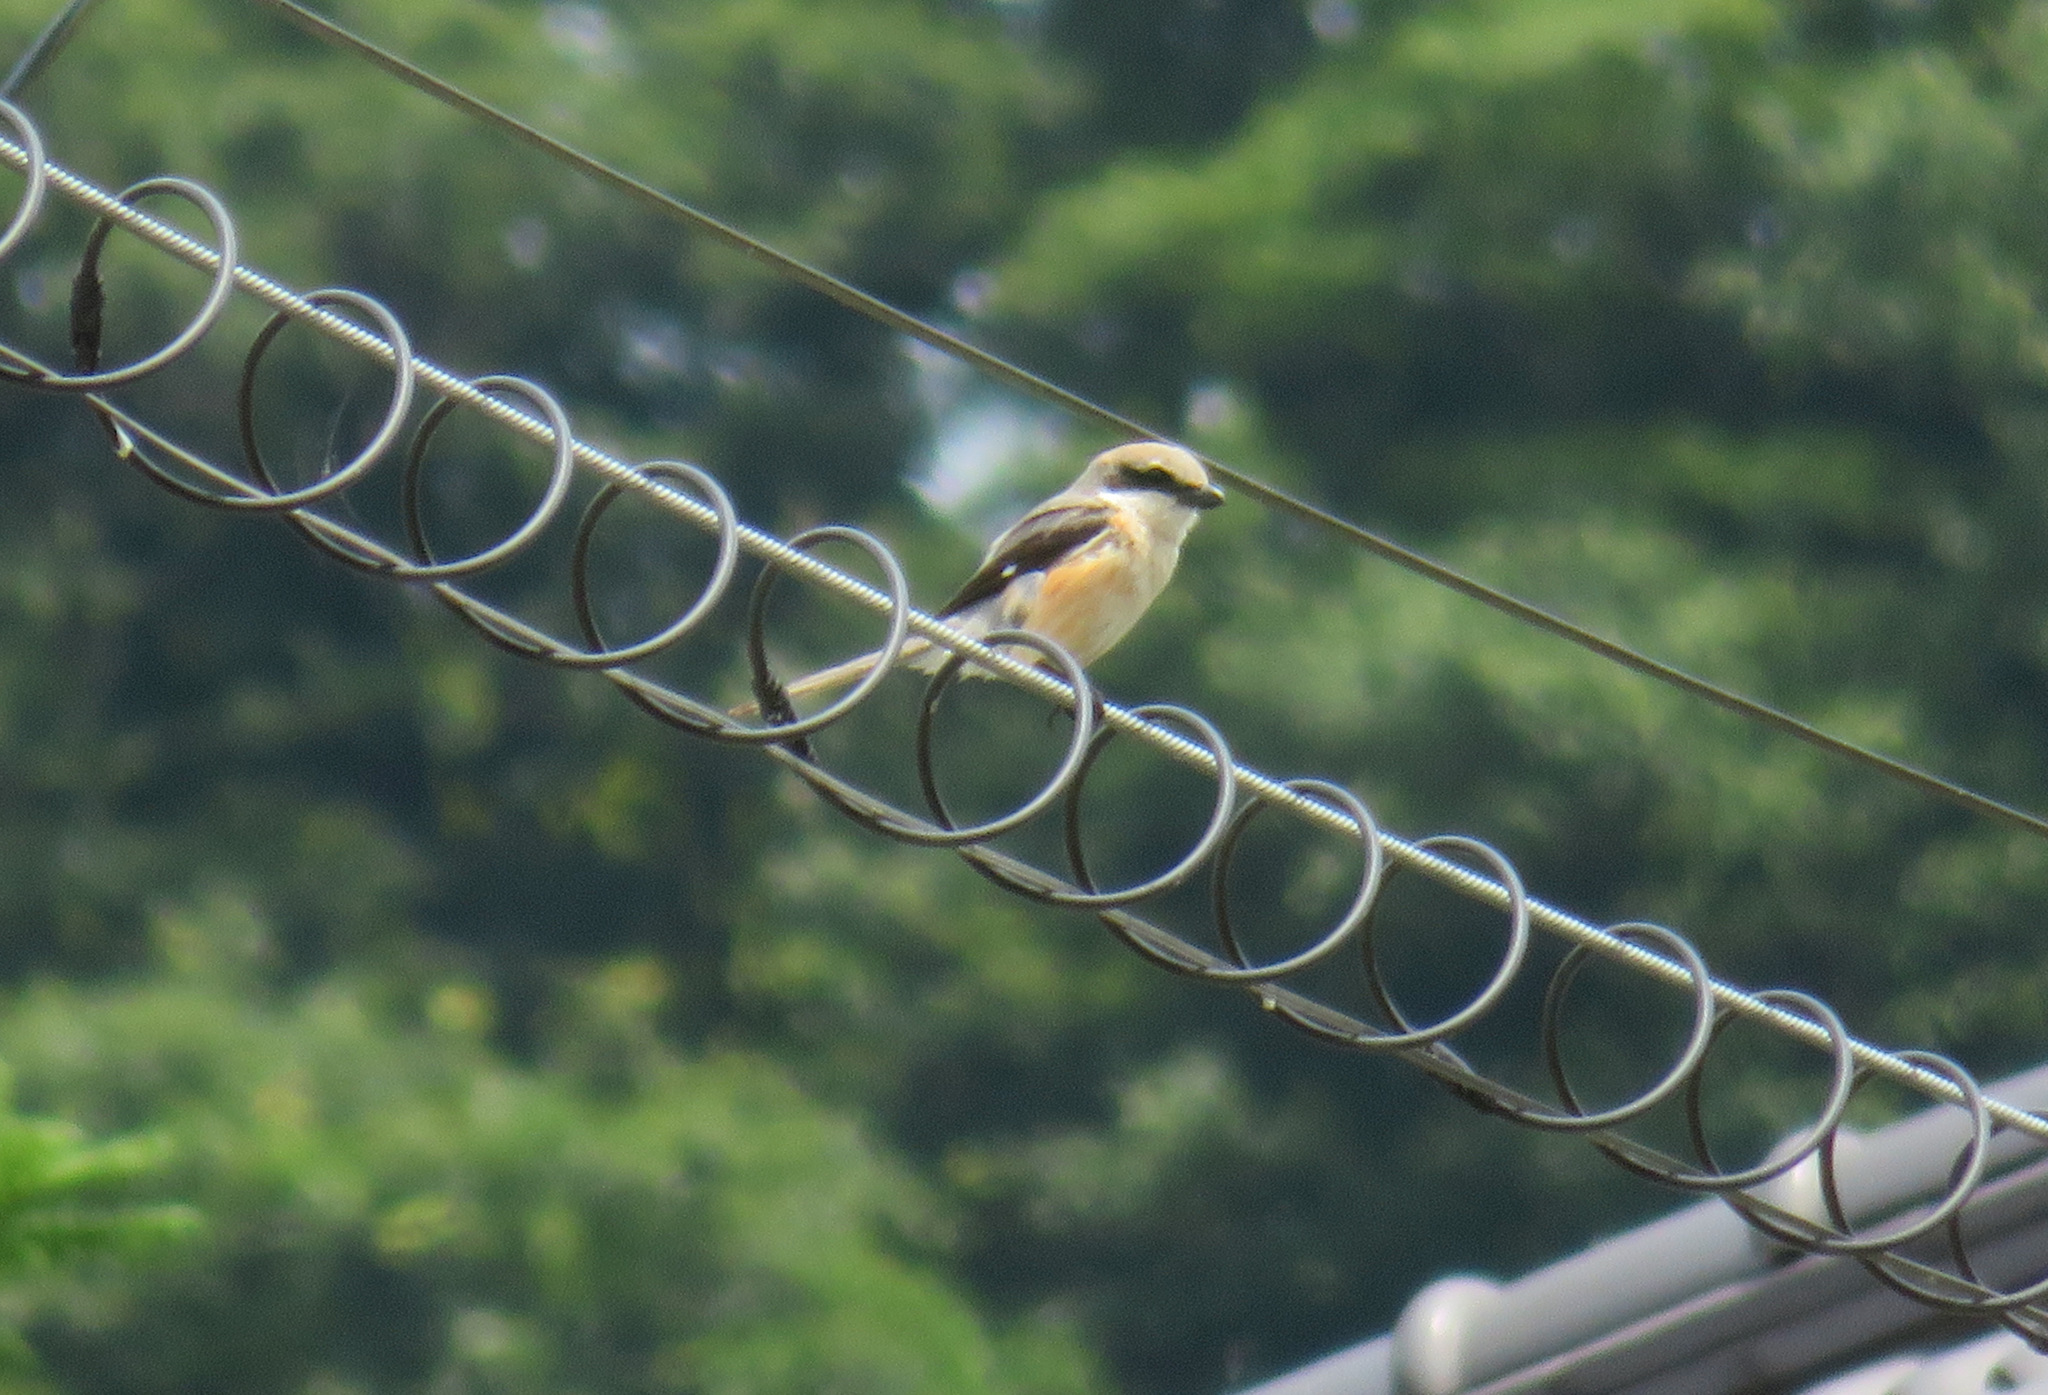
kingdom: Animalia
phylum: Chordata
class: Aves
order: Passeriformes
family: Laniidae
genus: Lanius
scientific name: Lanius bucephalus
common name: Bull-headed shrike
